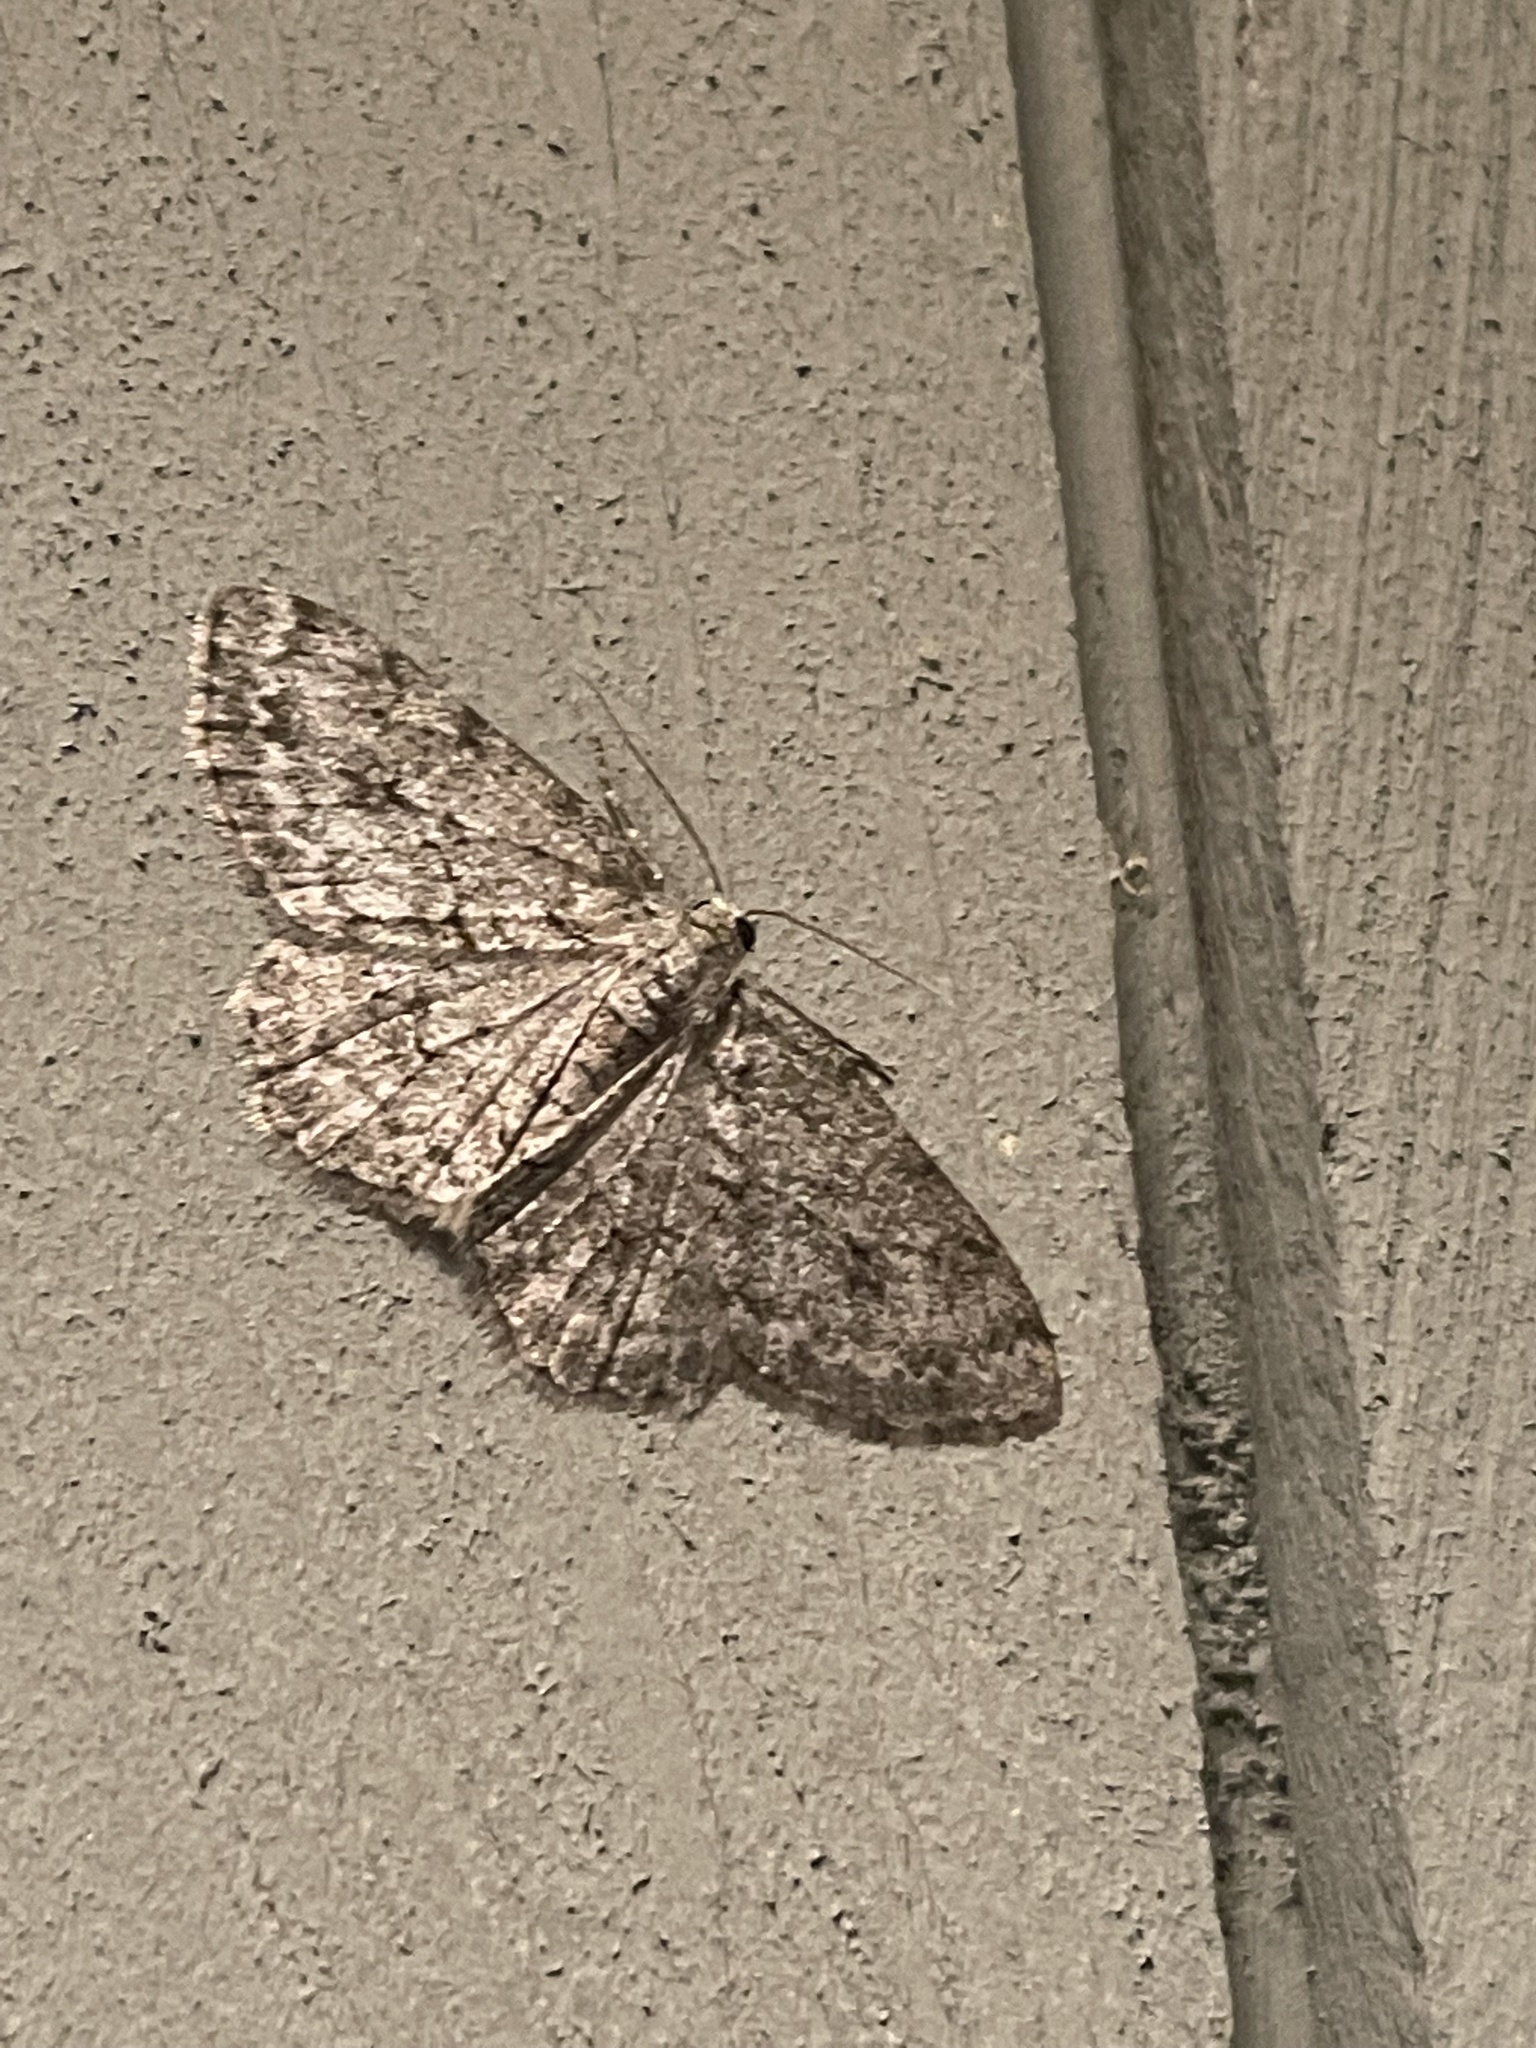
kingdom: Animalia
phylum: Arthropoda
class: Insecta
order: Lepidoptera
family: Geometridae
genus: Ectropis
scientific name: Ectropis crepuscularia
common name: Engrailed
